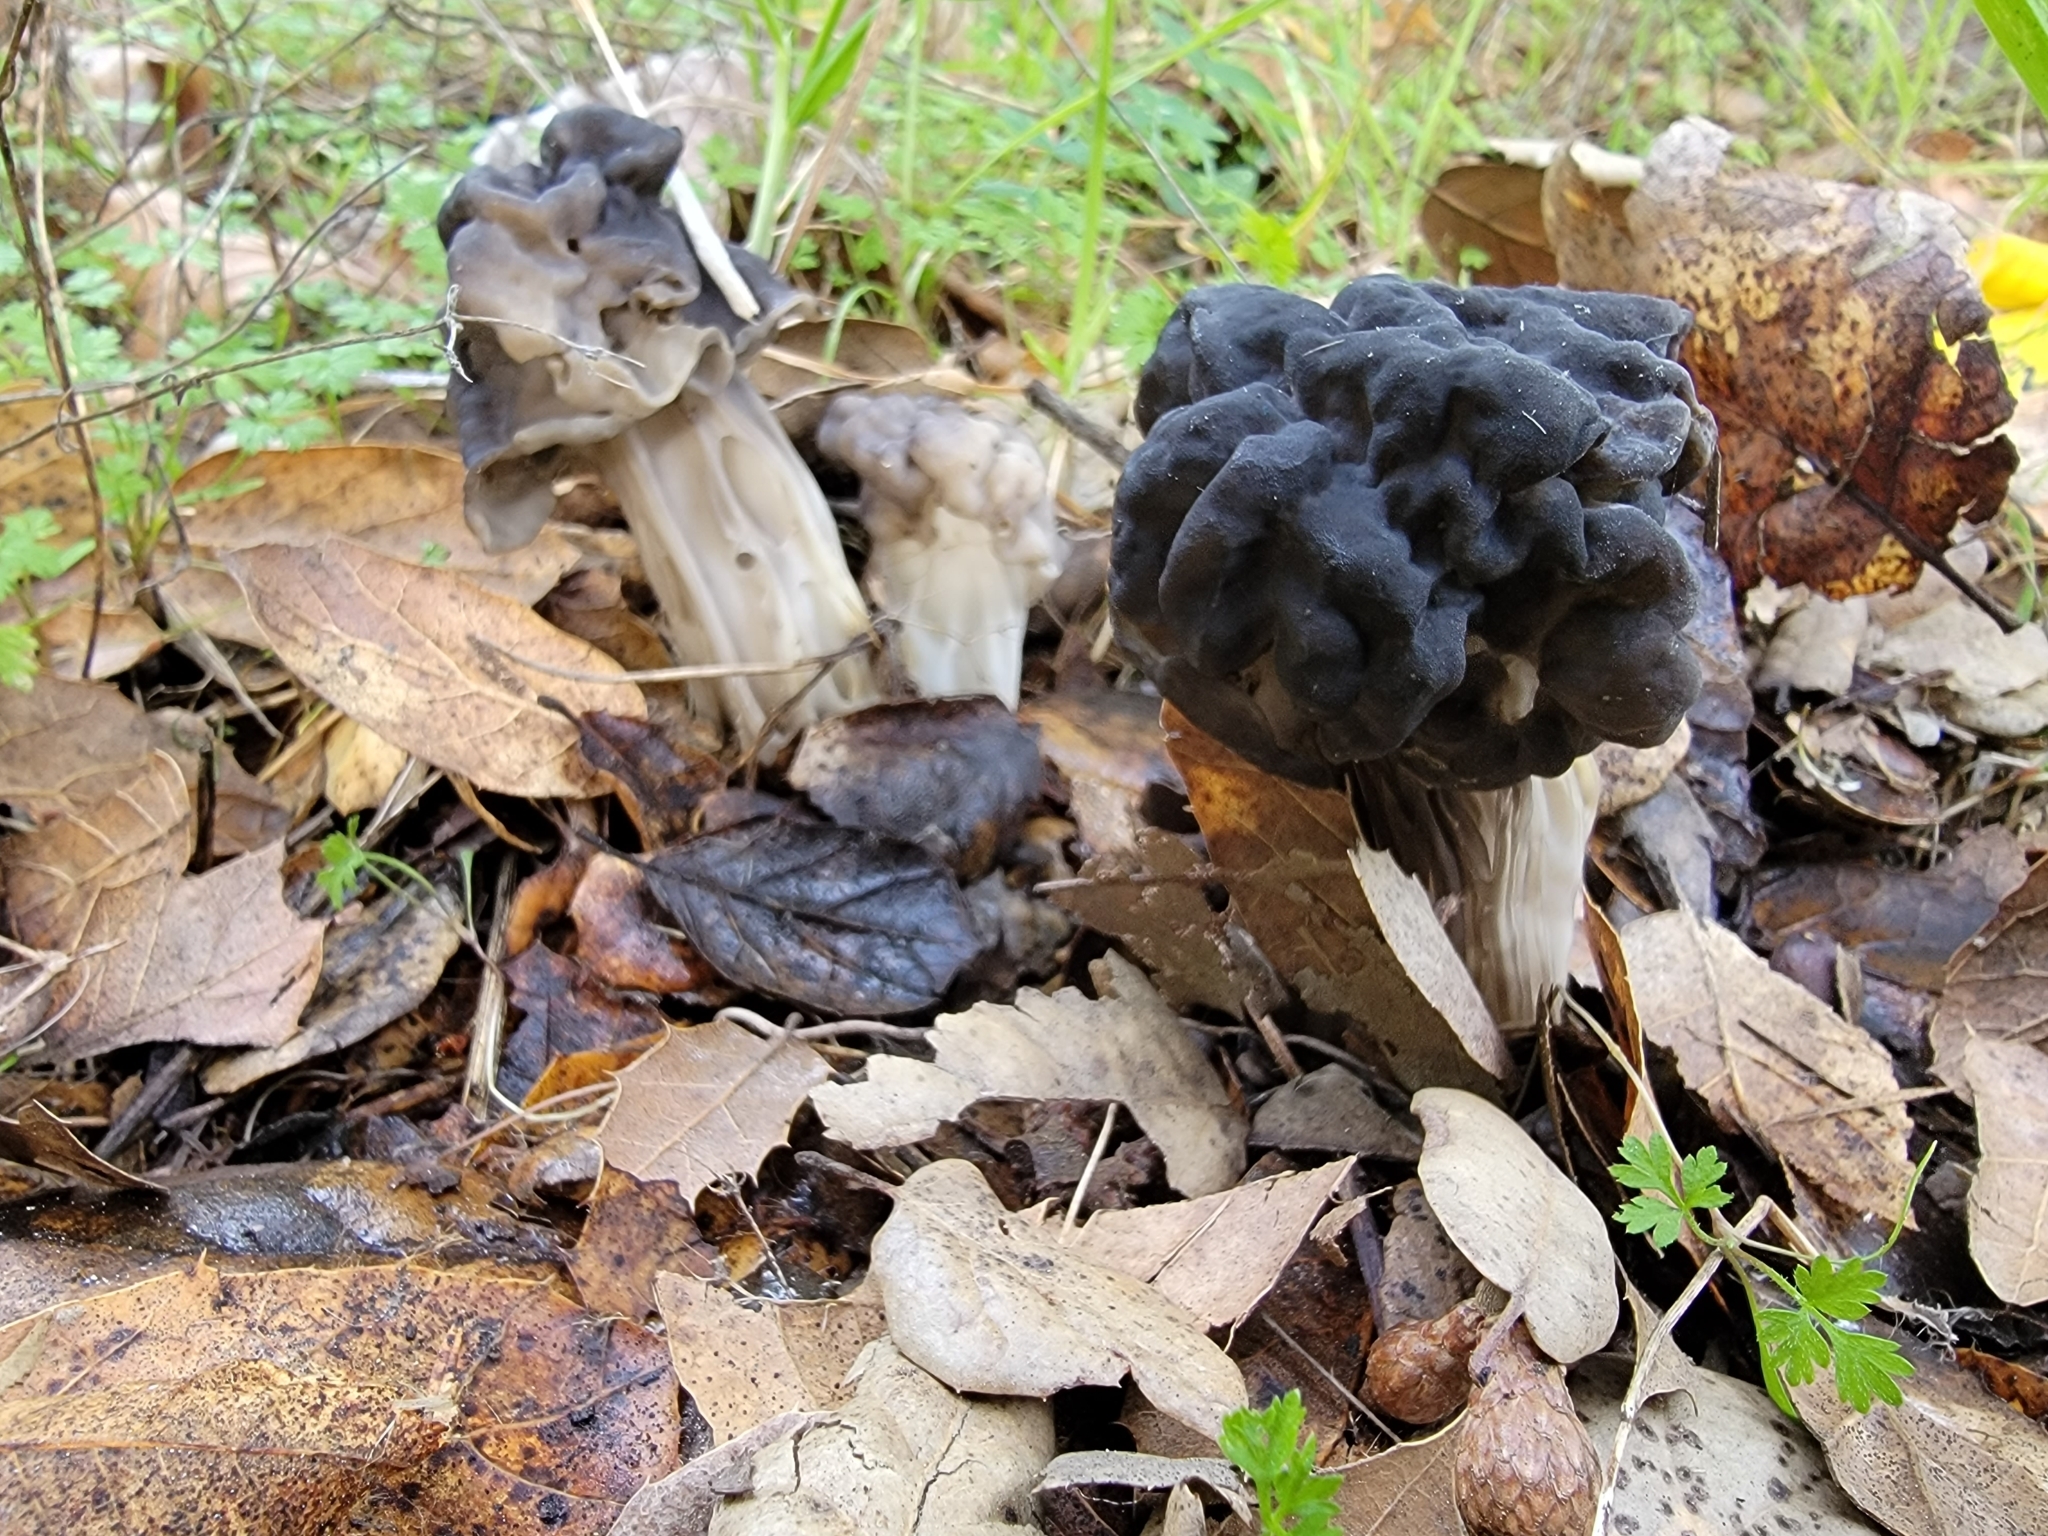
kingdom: Fungi
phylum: Ascomycota
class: Pezizomycetes
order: Pezizales
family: Helvellaceae
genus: Helvella
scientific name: Helvella dryophila
